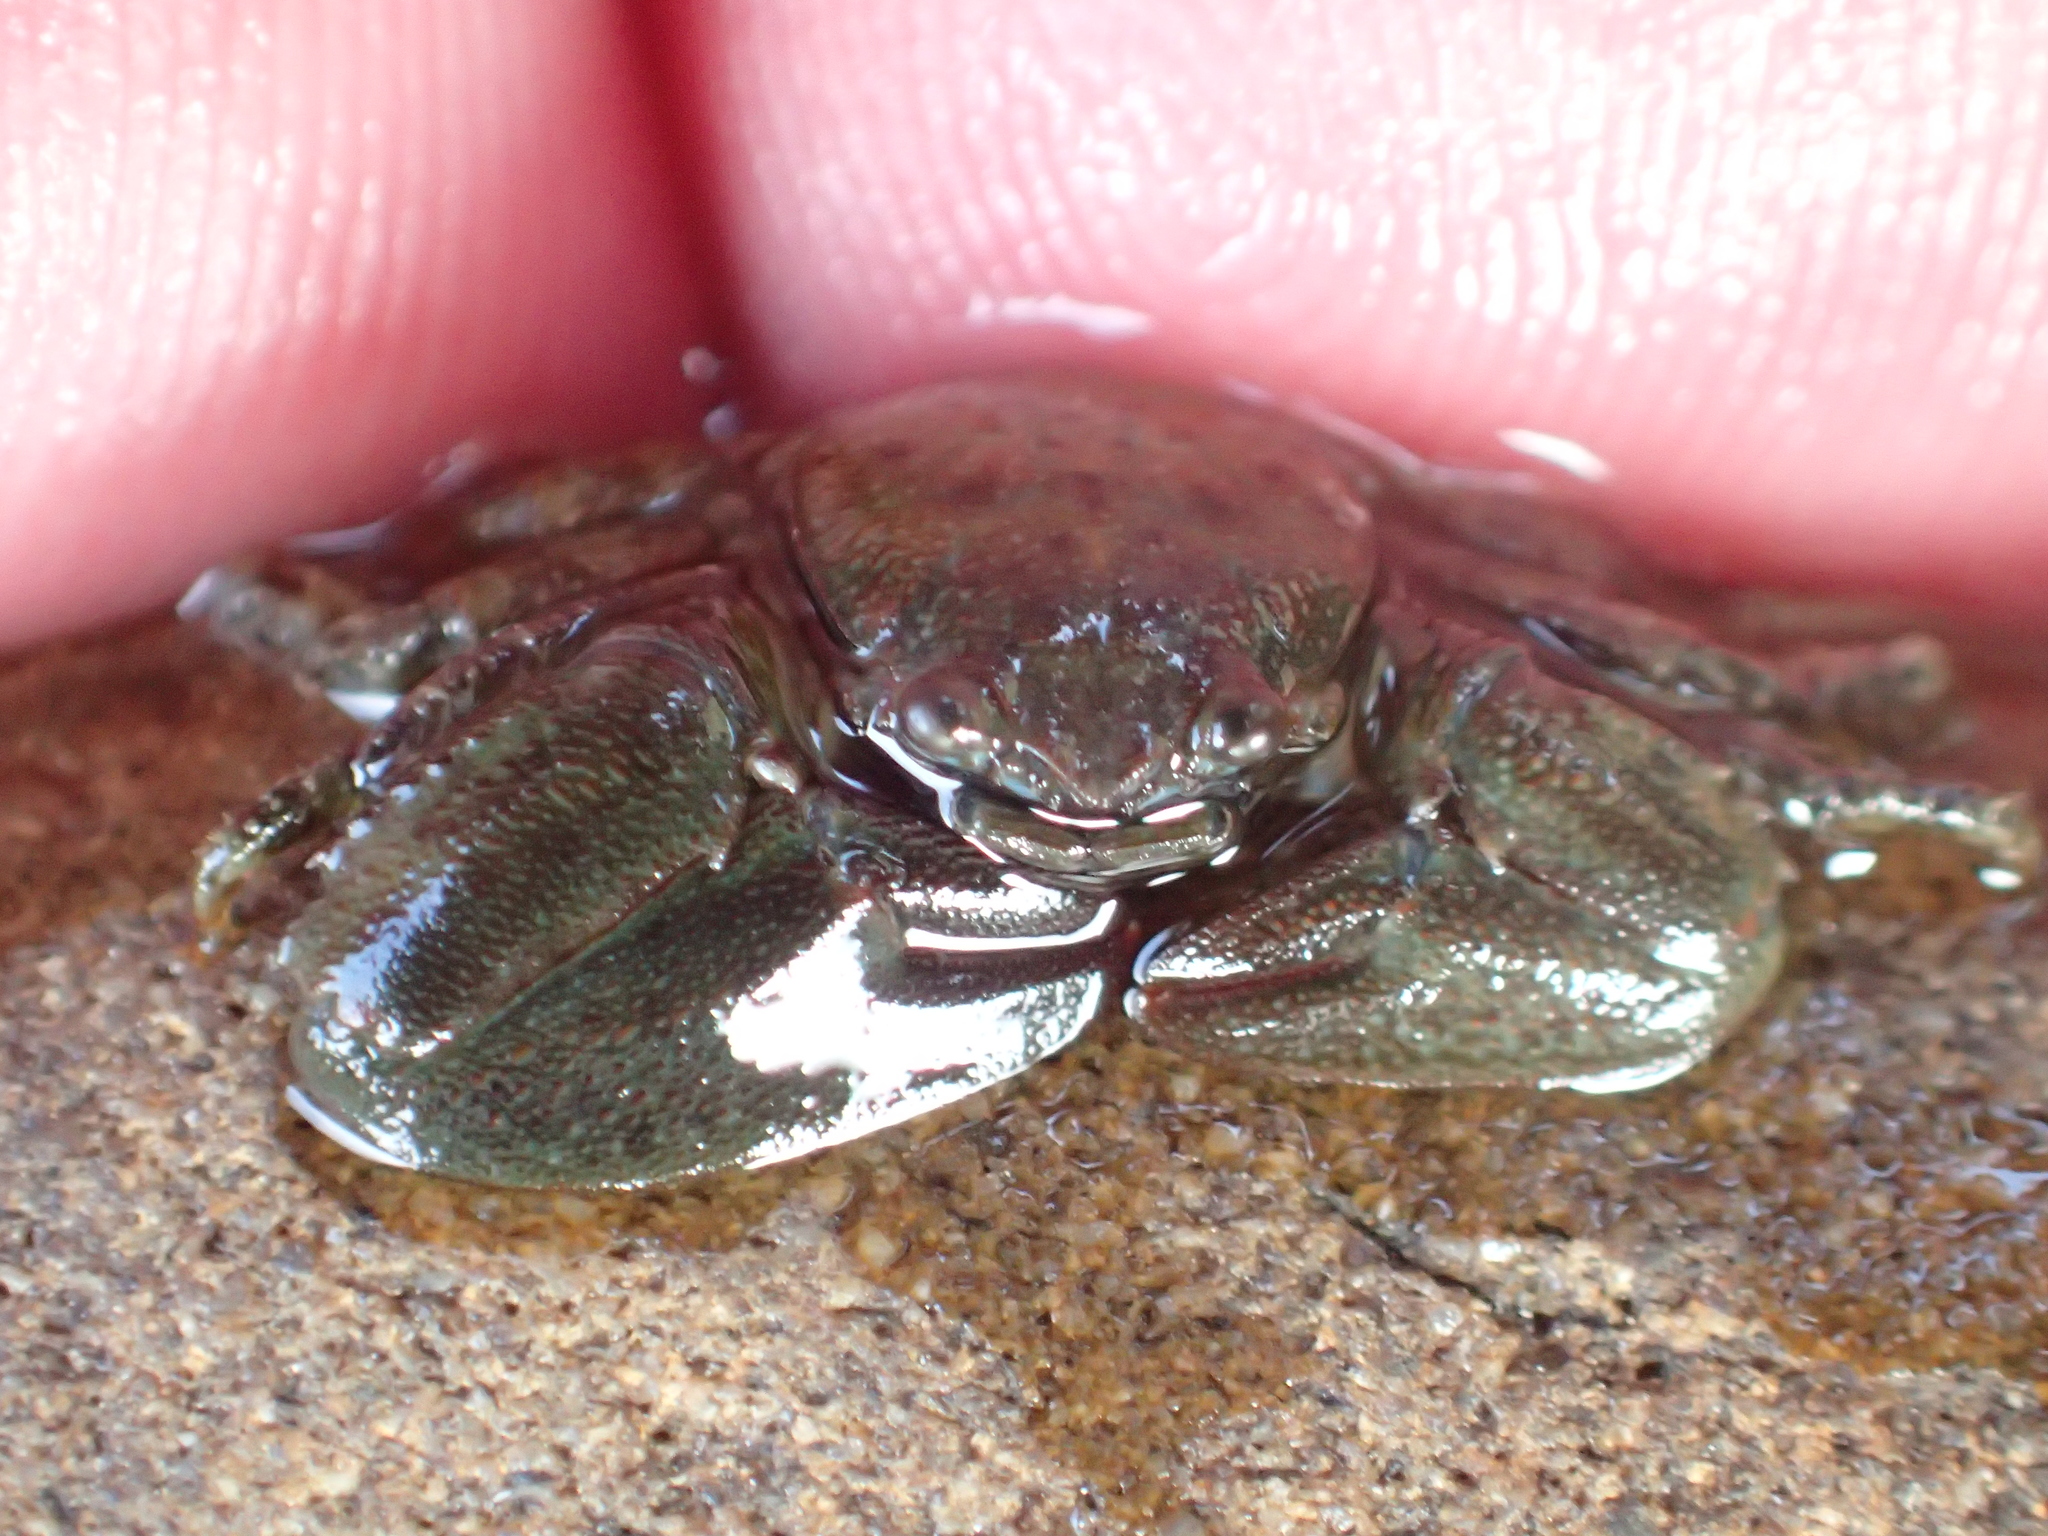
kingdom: Animalia
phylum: Arthropoda
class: Malacostraca
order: Decapoda
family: Porcellanidae
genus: Petrolisthes
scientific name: Petrolisthes elongatus
